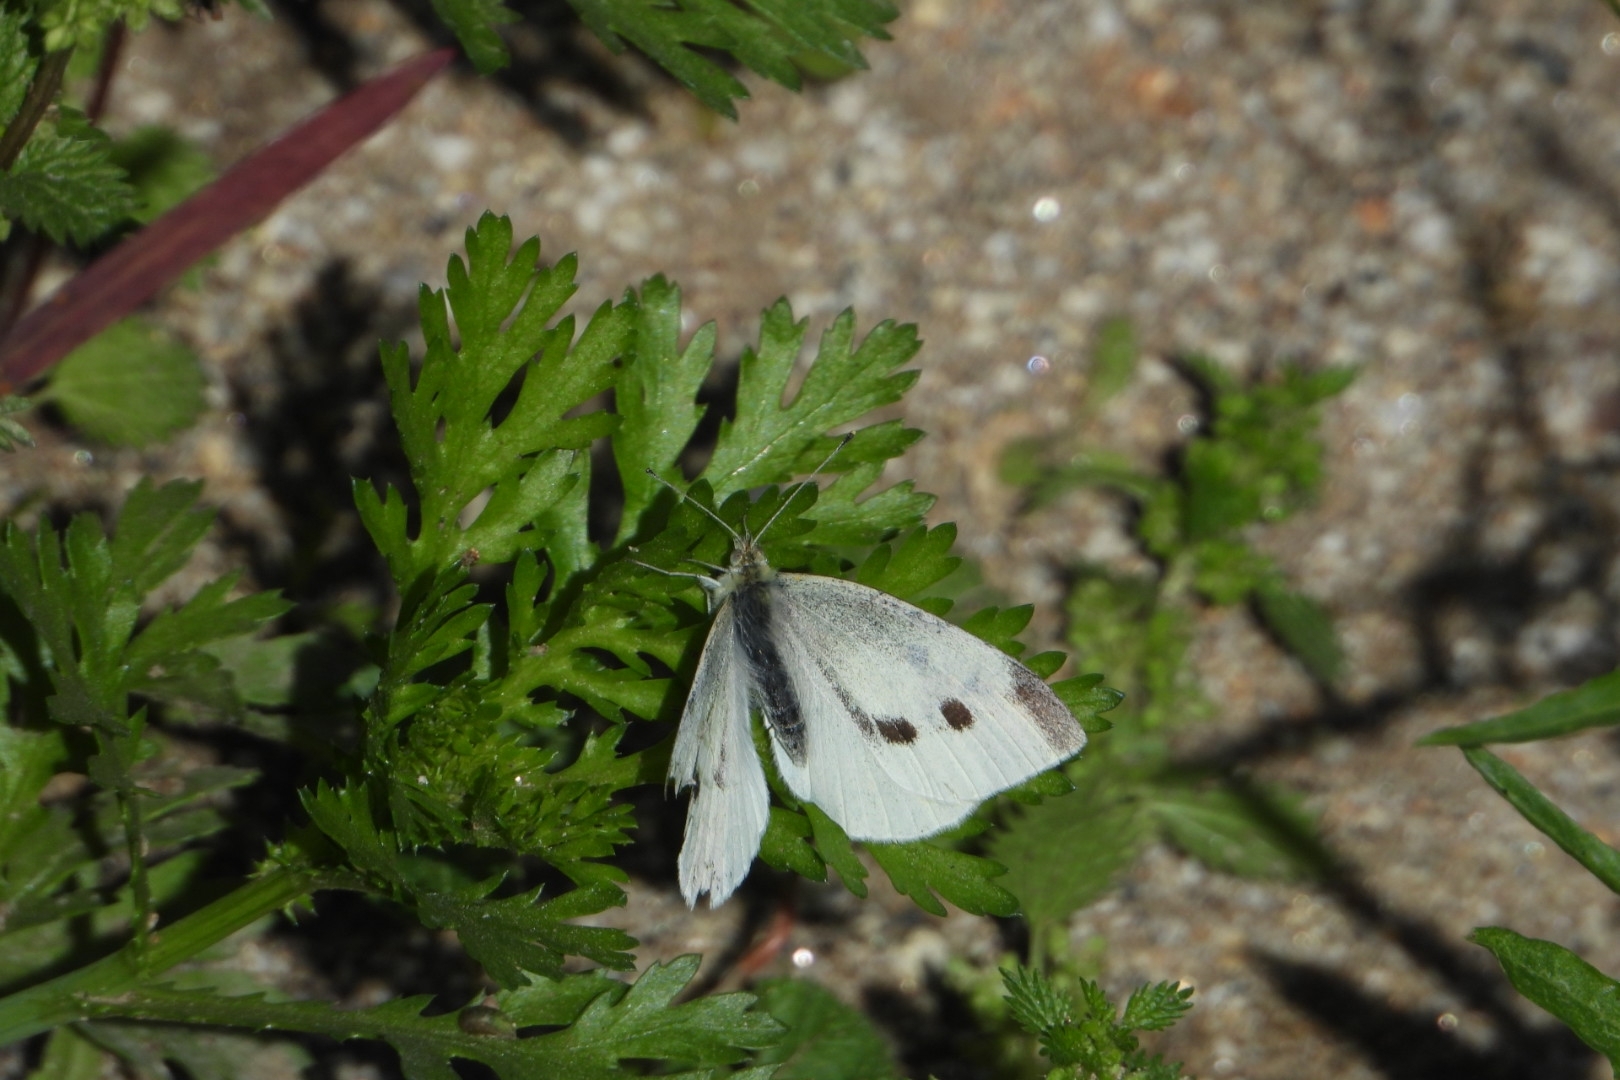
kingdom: Animalia
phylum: Arthropoda
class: Insecta
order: Lepidoptera
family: Pieridae
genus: Pieris
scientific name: Pieris rapae
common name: Small white
